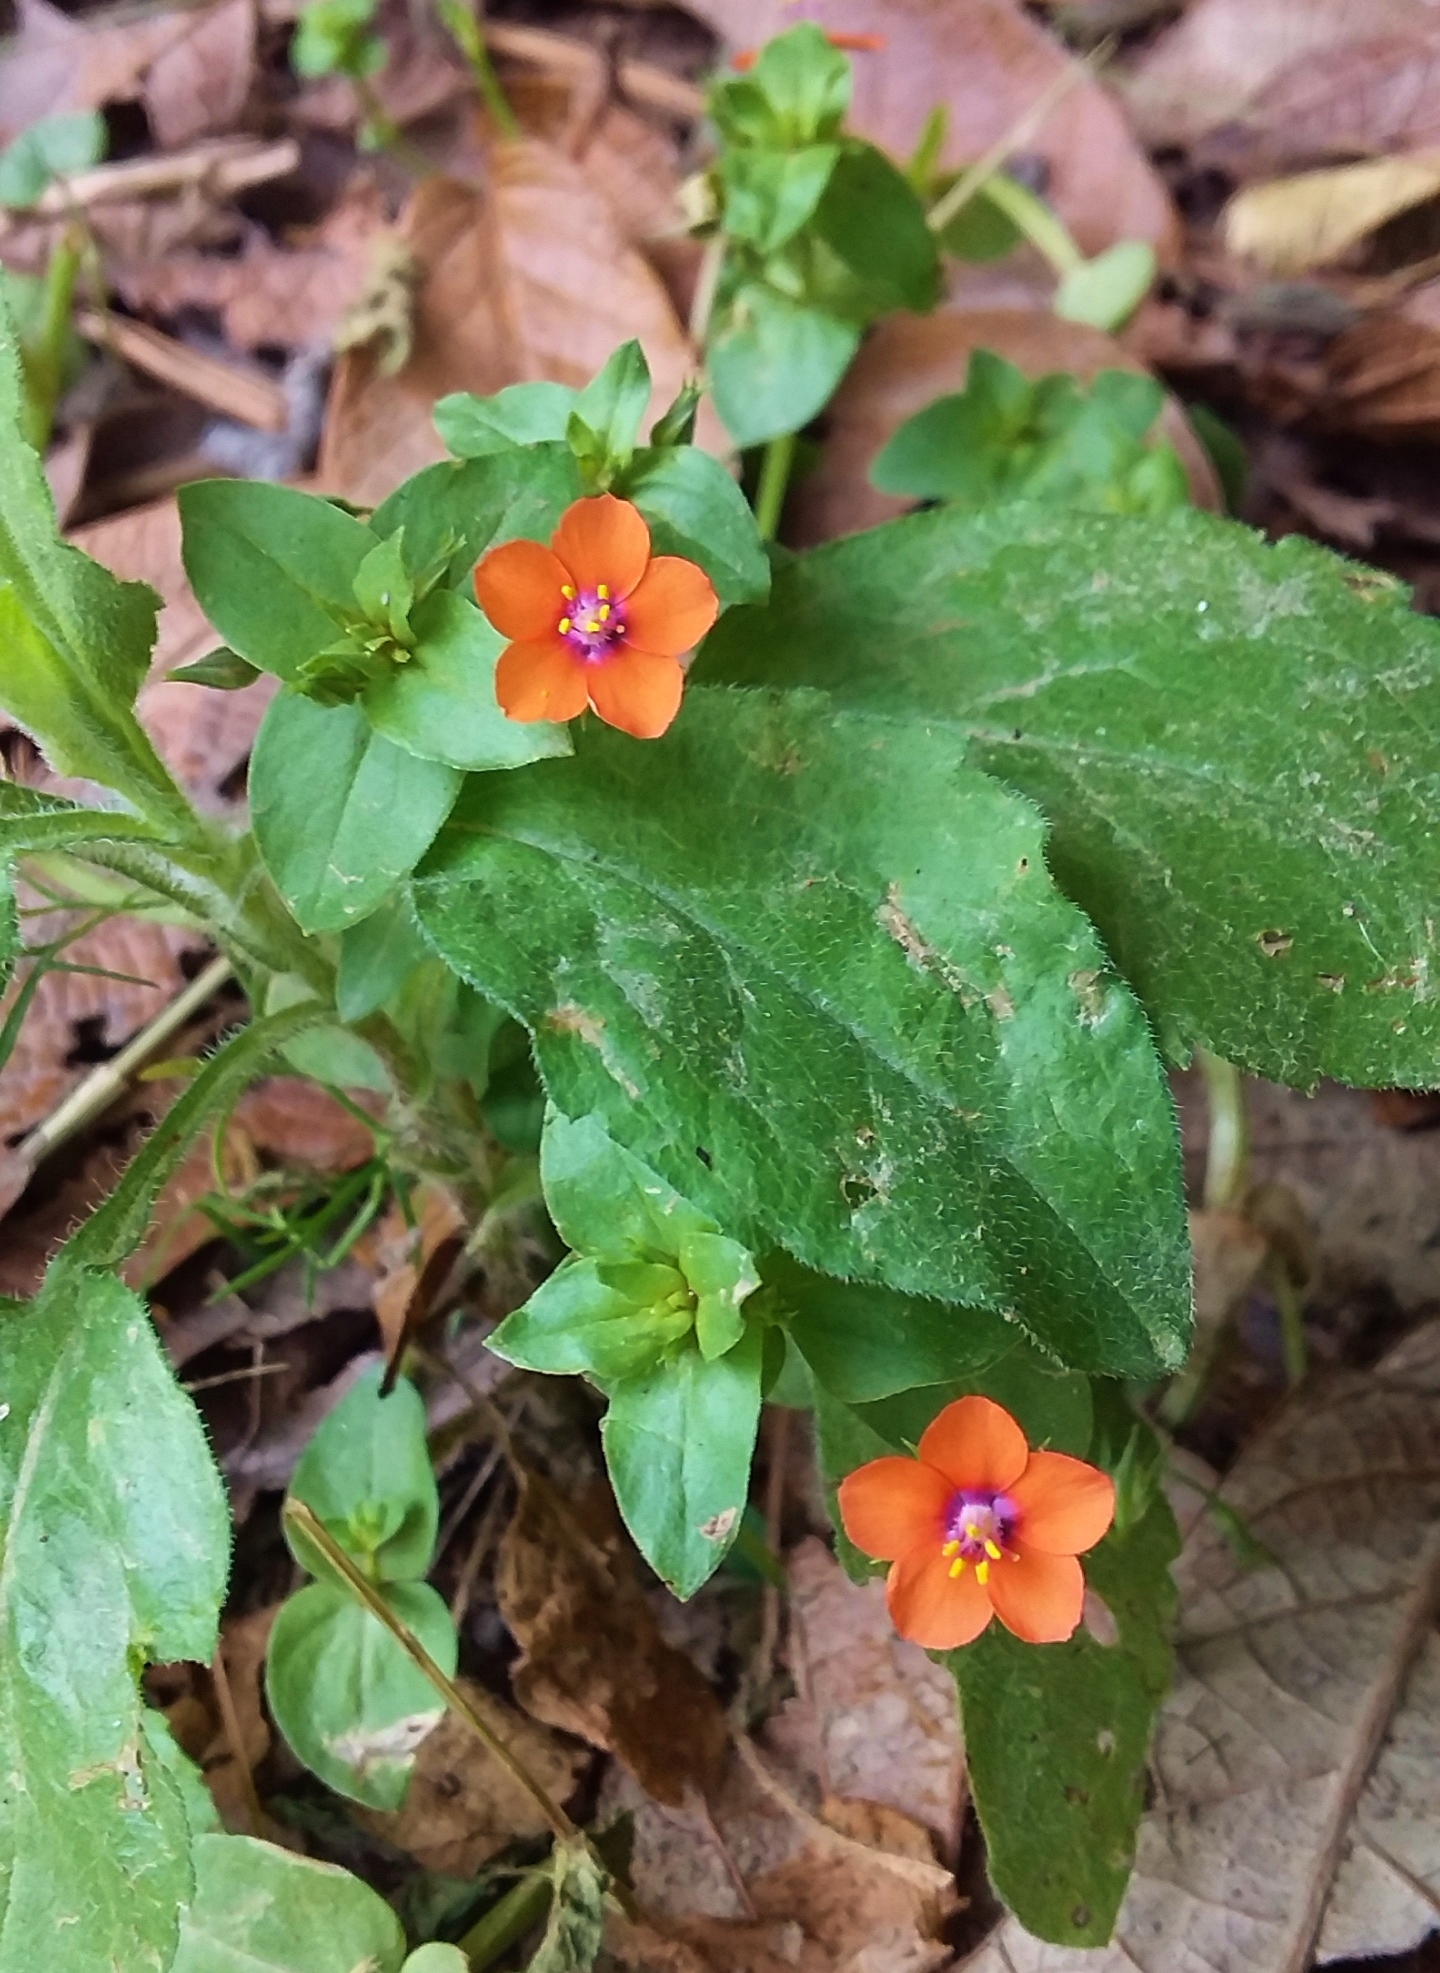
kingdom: Plantae
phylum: Tracheophyta
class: Magnoliopsida
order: Ericales
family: Primulaceae
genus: Lysimachia
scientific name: Lysimachia arvensis
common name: Scarlet pimpernel
